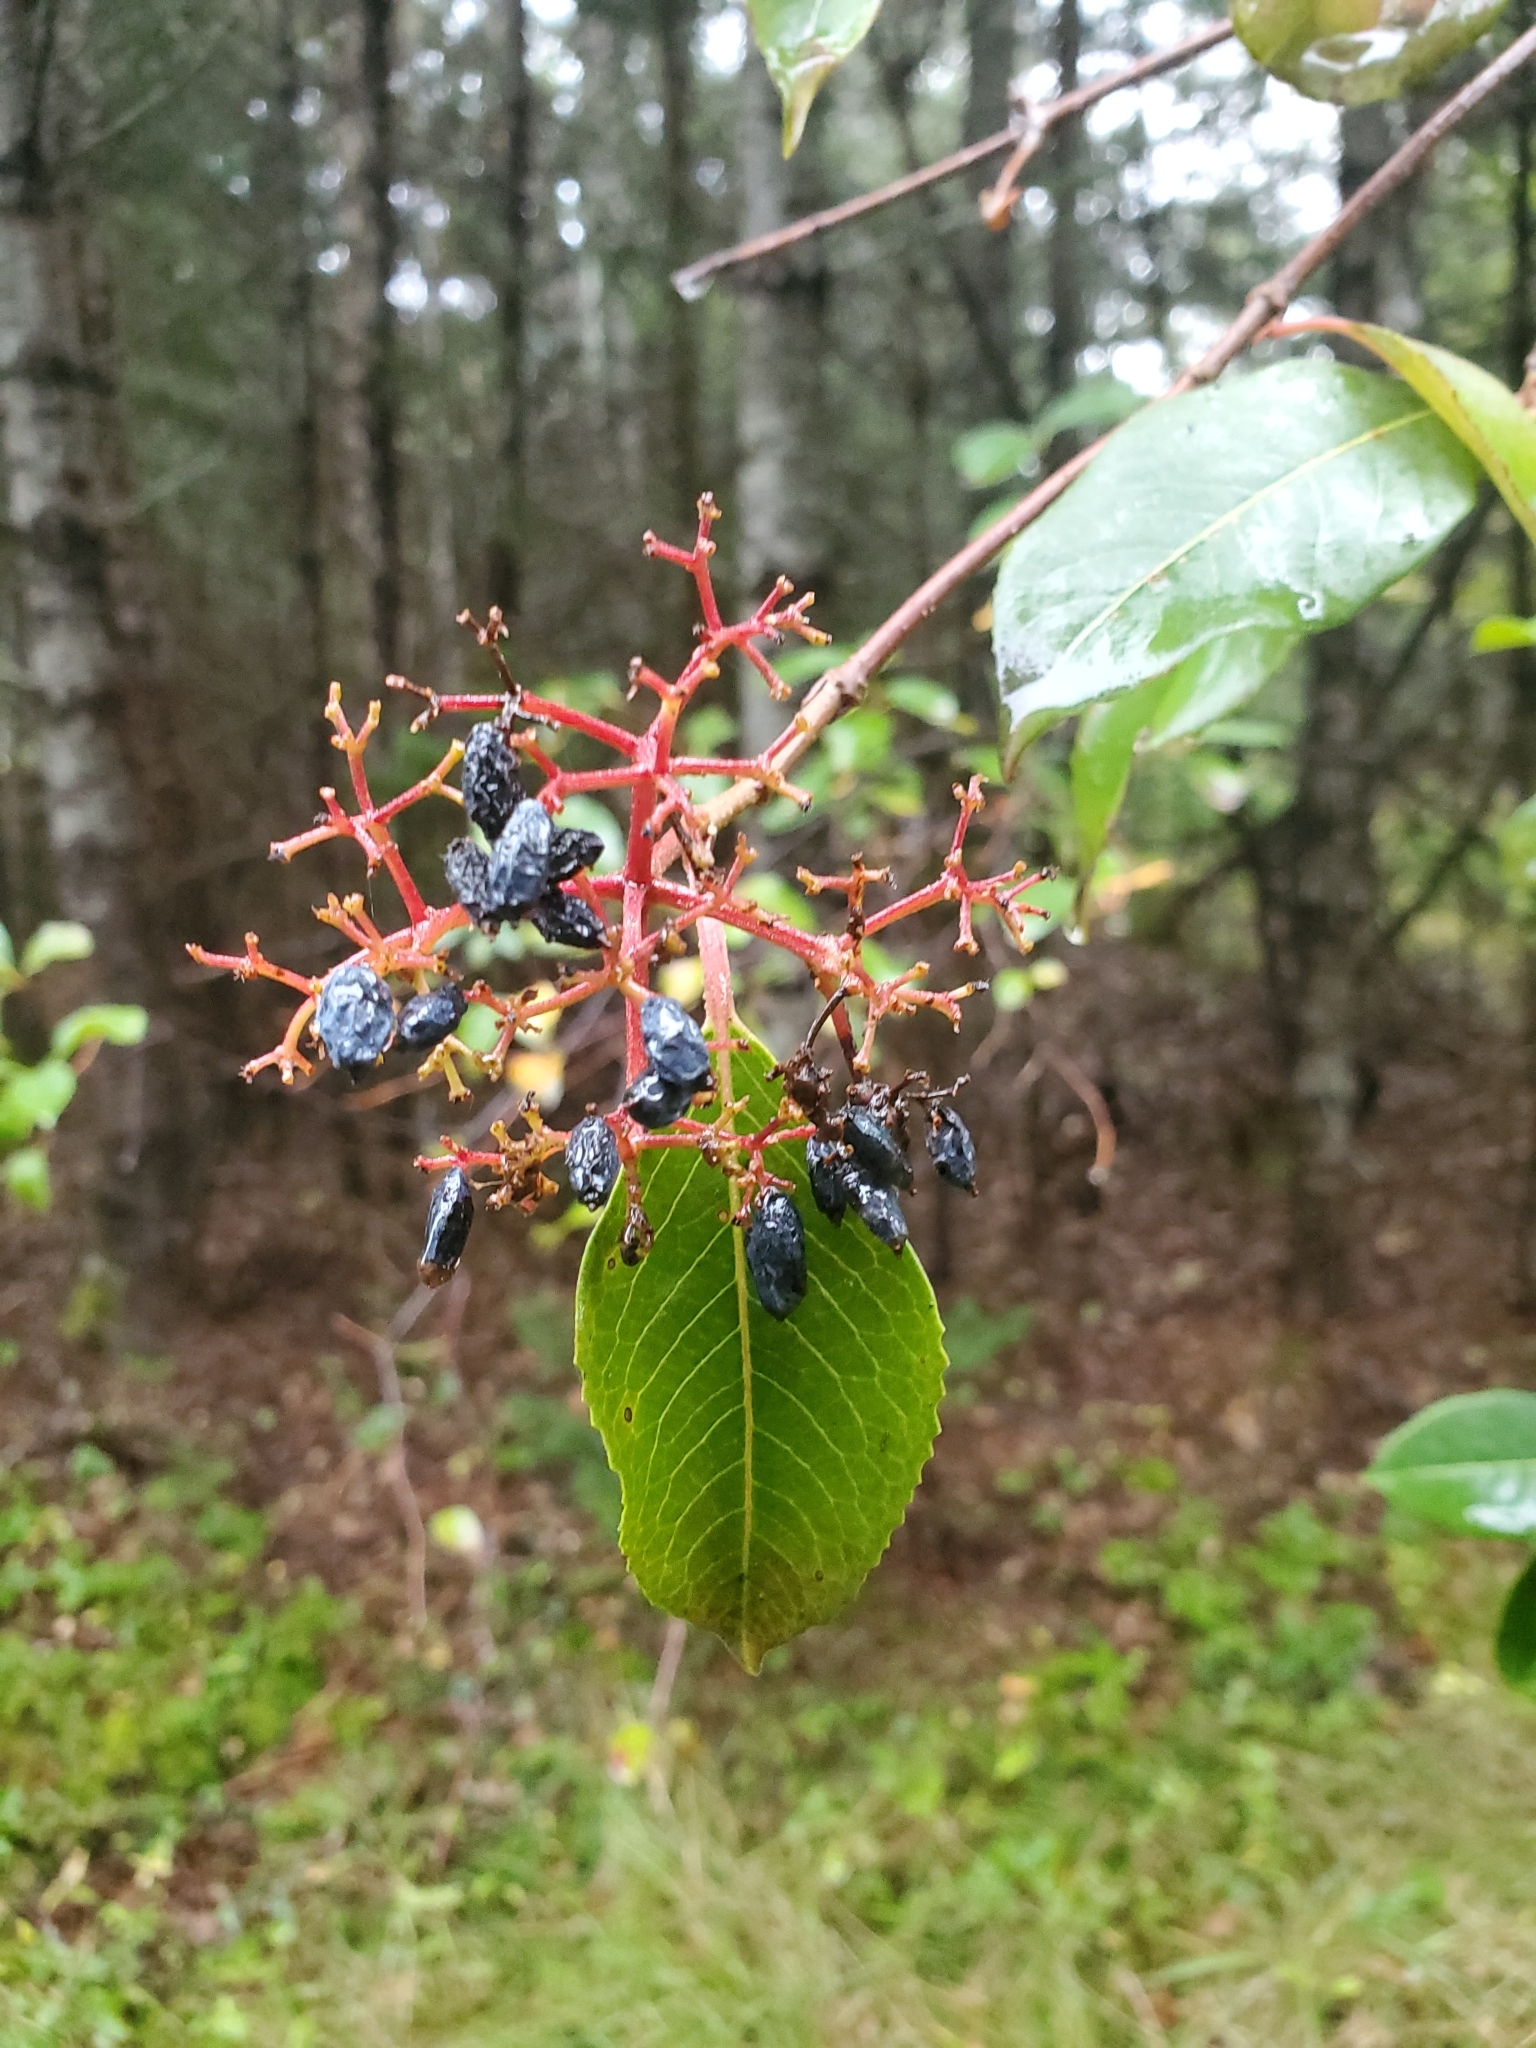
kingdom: Plantae
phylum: Tracheophyta
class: Magnoliopsida
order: Dipsacales
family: Viburnaceae
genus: Viburnum
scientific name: Viburnum cassinoides
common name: Swamp haw
